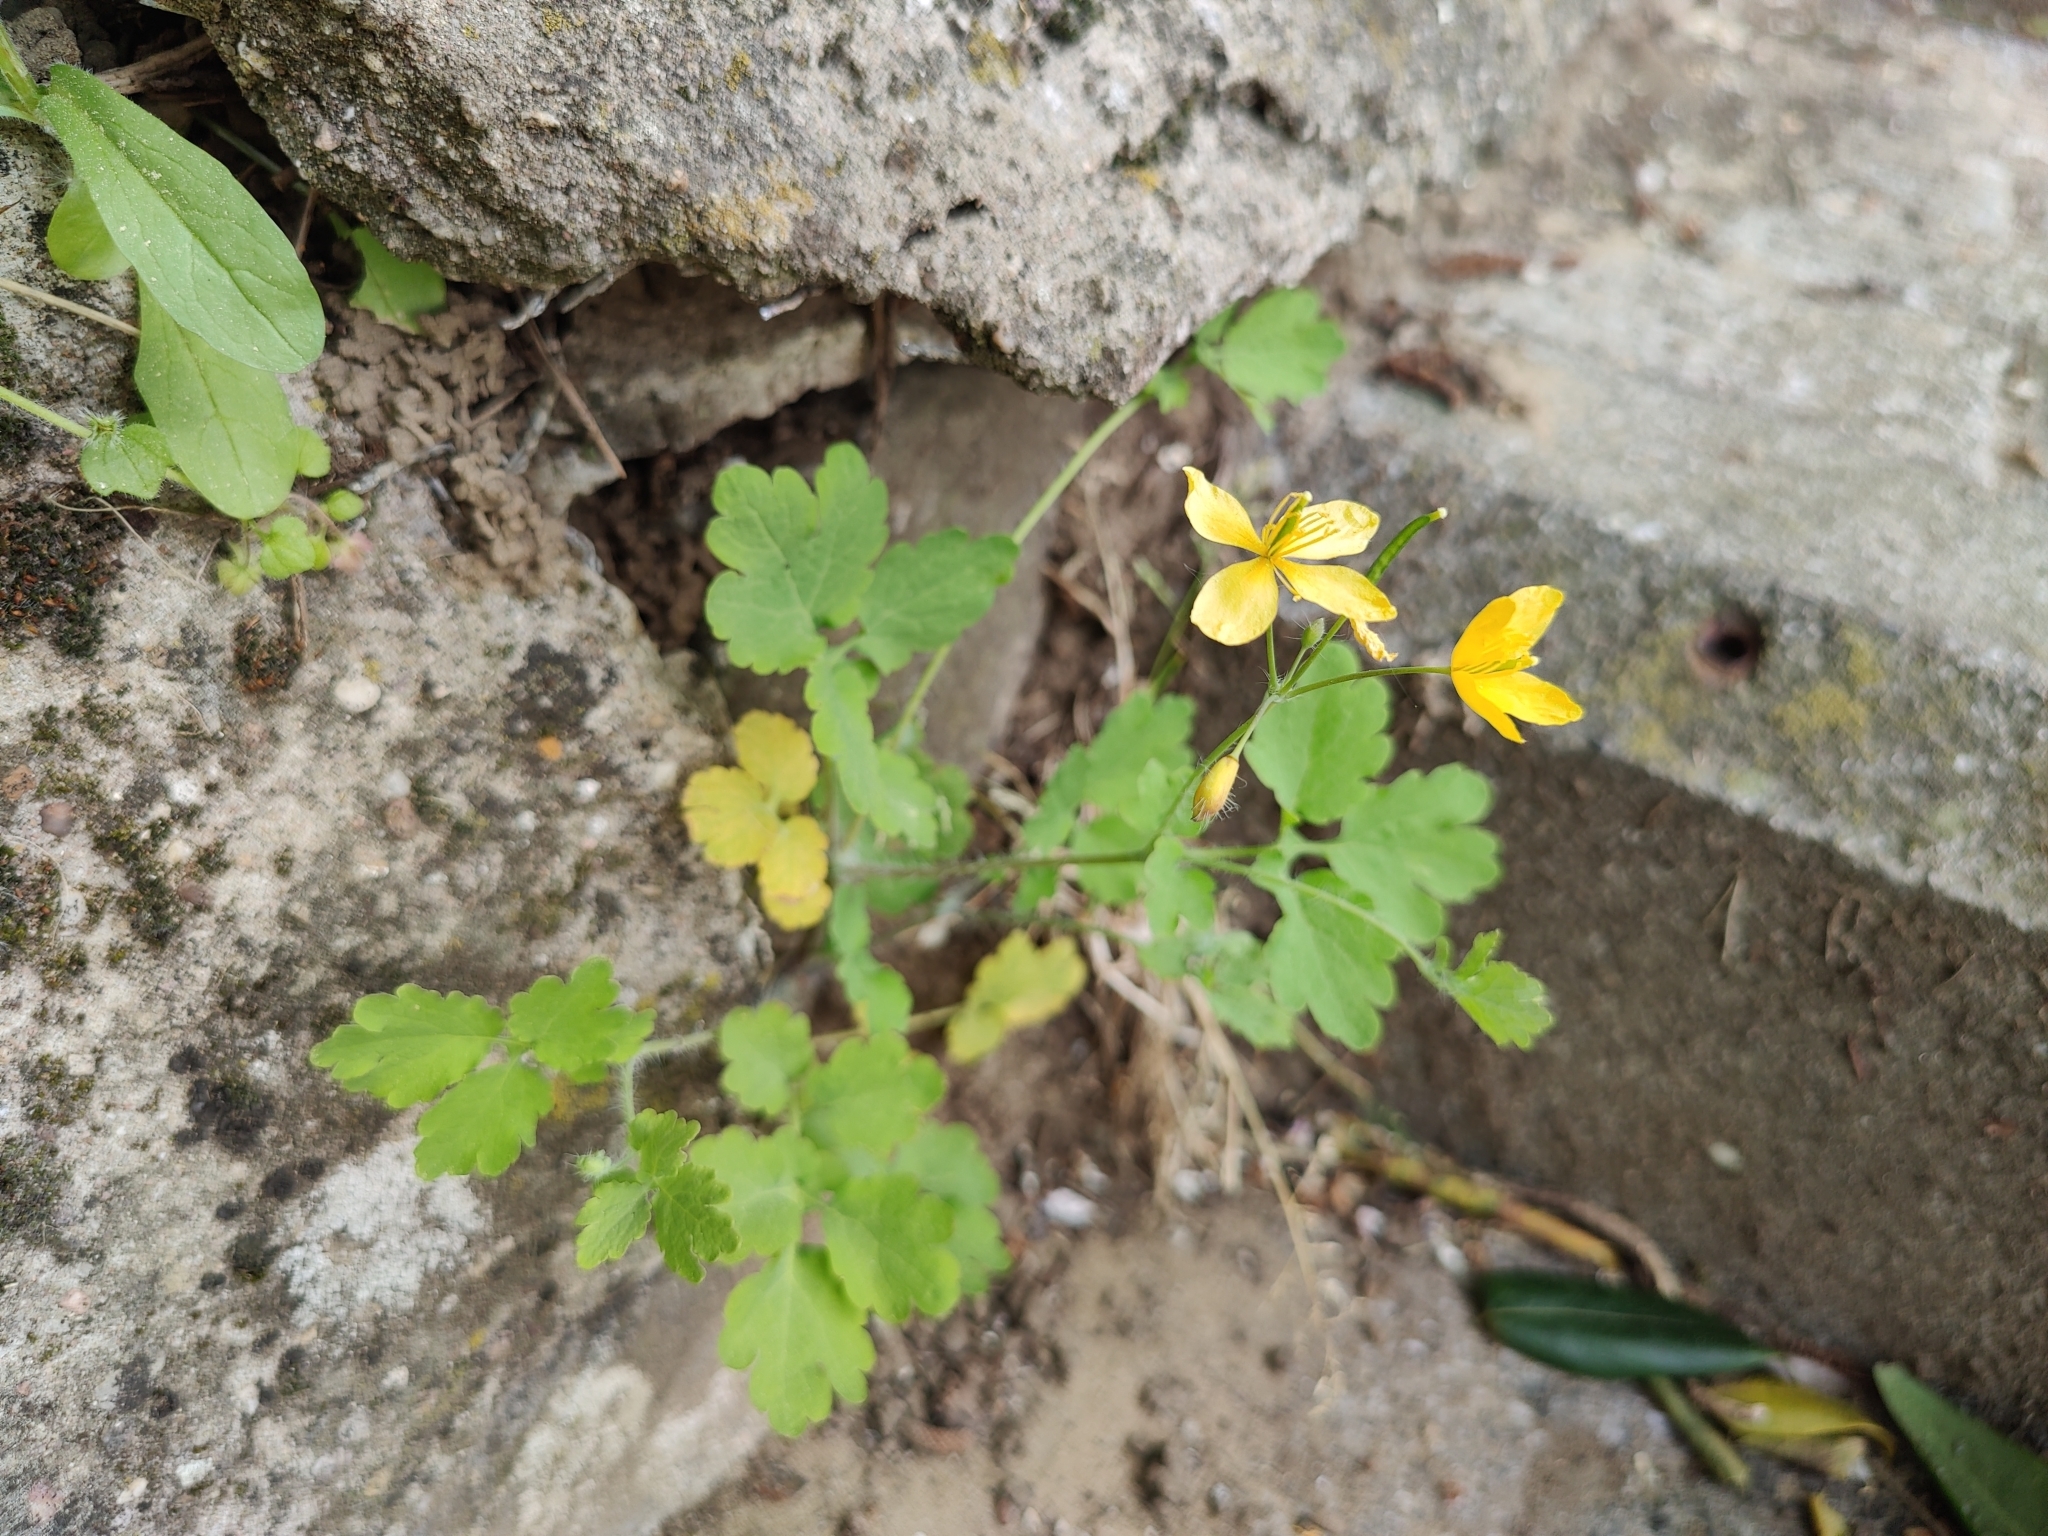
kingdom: Plantae
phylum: Tracheophyta
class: Magnoliopsida
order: Ranunculales
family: Papaveraceae
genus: Chelidonium
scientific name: Chelidonium majus
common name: Greater celandine
